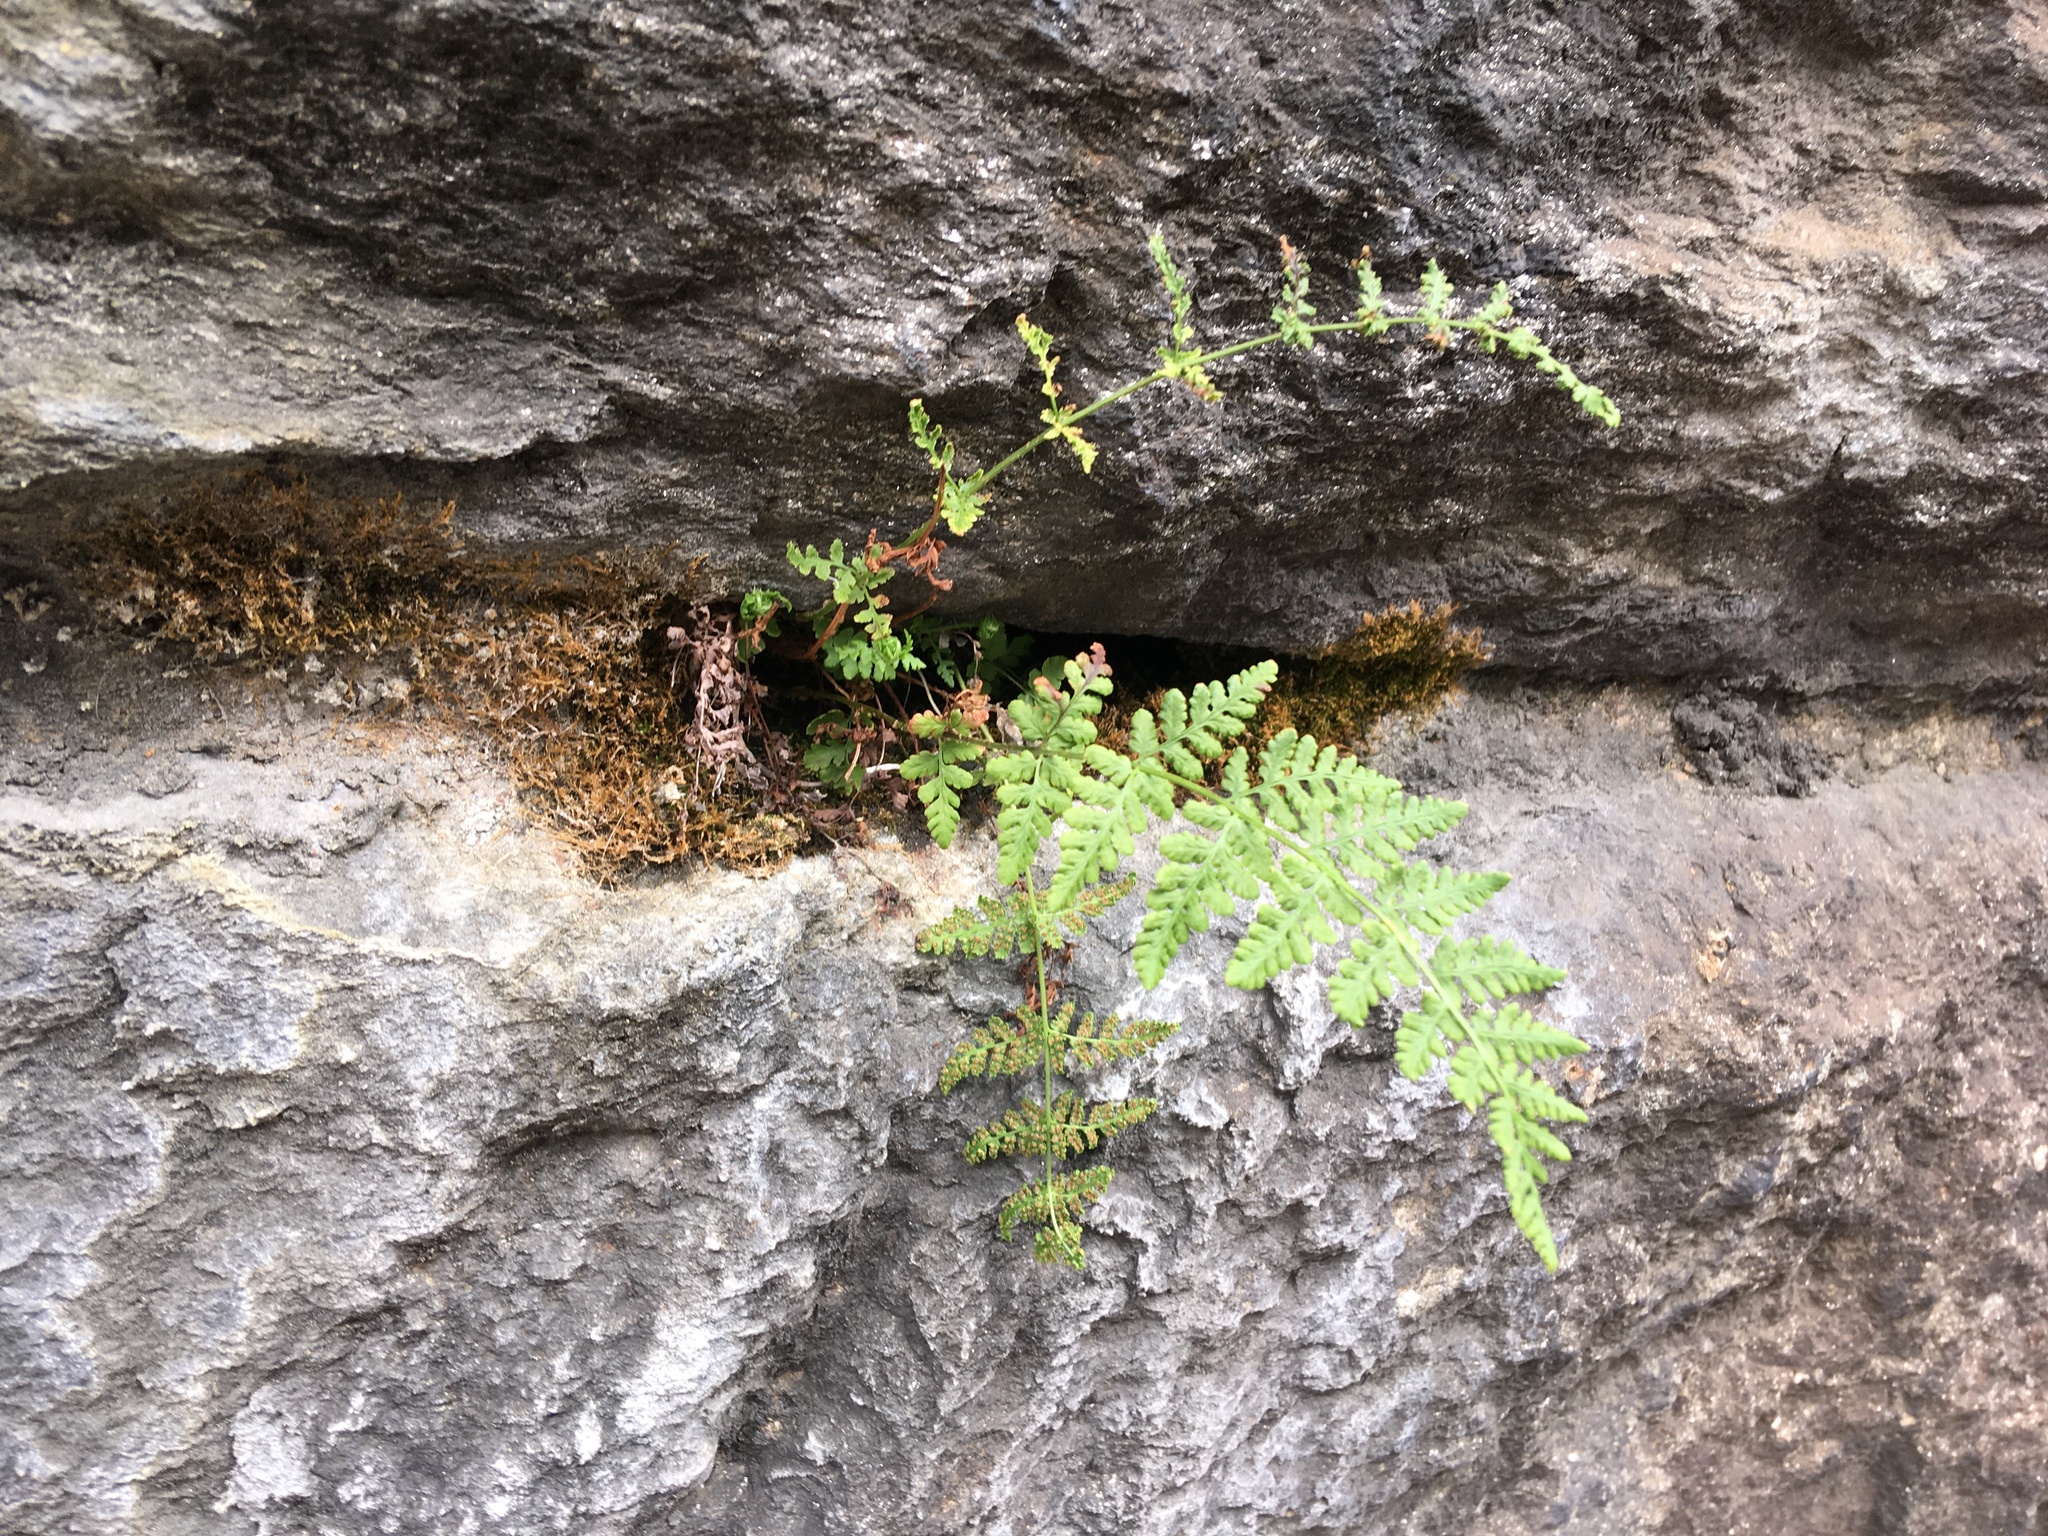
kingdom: Plantae
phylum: Tracheophyta
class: Polypodiopsida
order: Polypodiales
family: Woodsiaceae
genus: Physematium
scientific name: Physematium obtusum
